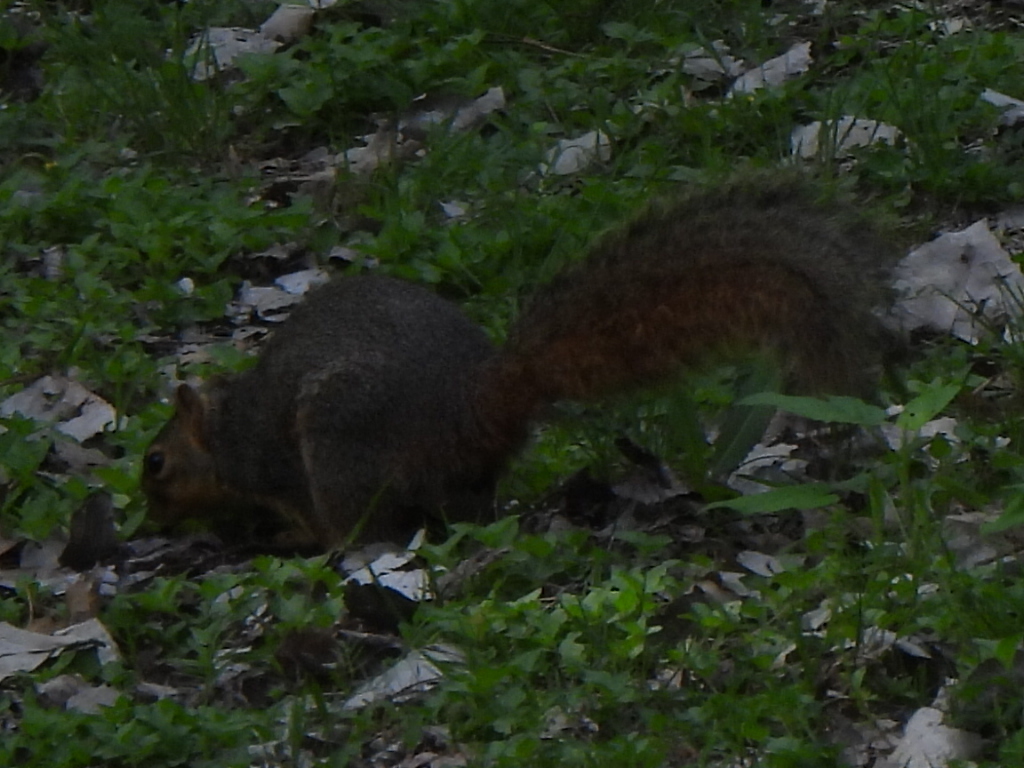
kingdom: Animalia
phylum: Chordata
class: Mammalia
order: Rodentia
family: Sciuridae
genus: Sciurus
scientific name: Sciurus niger
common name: Fox squirrel
